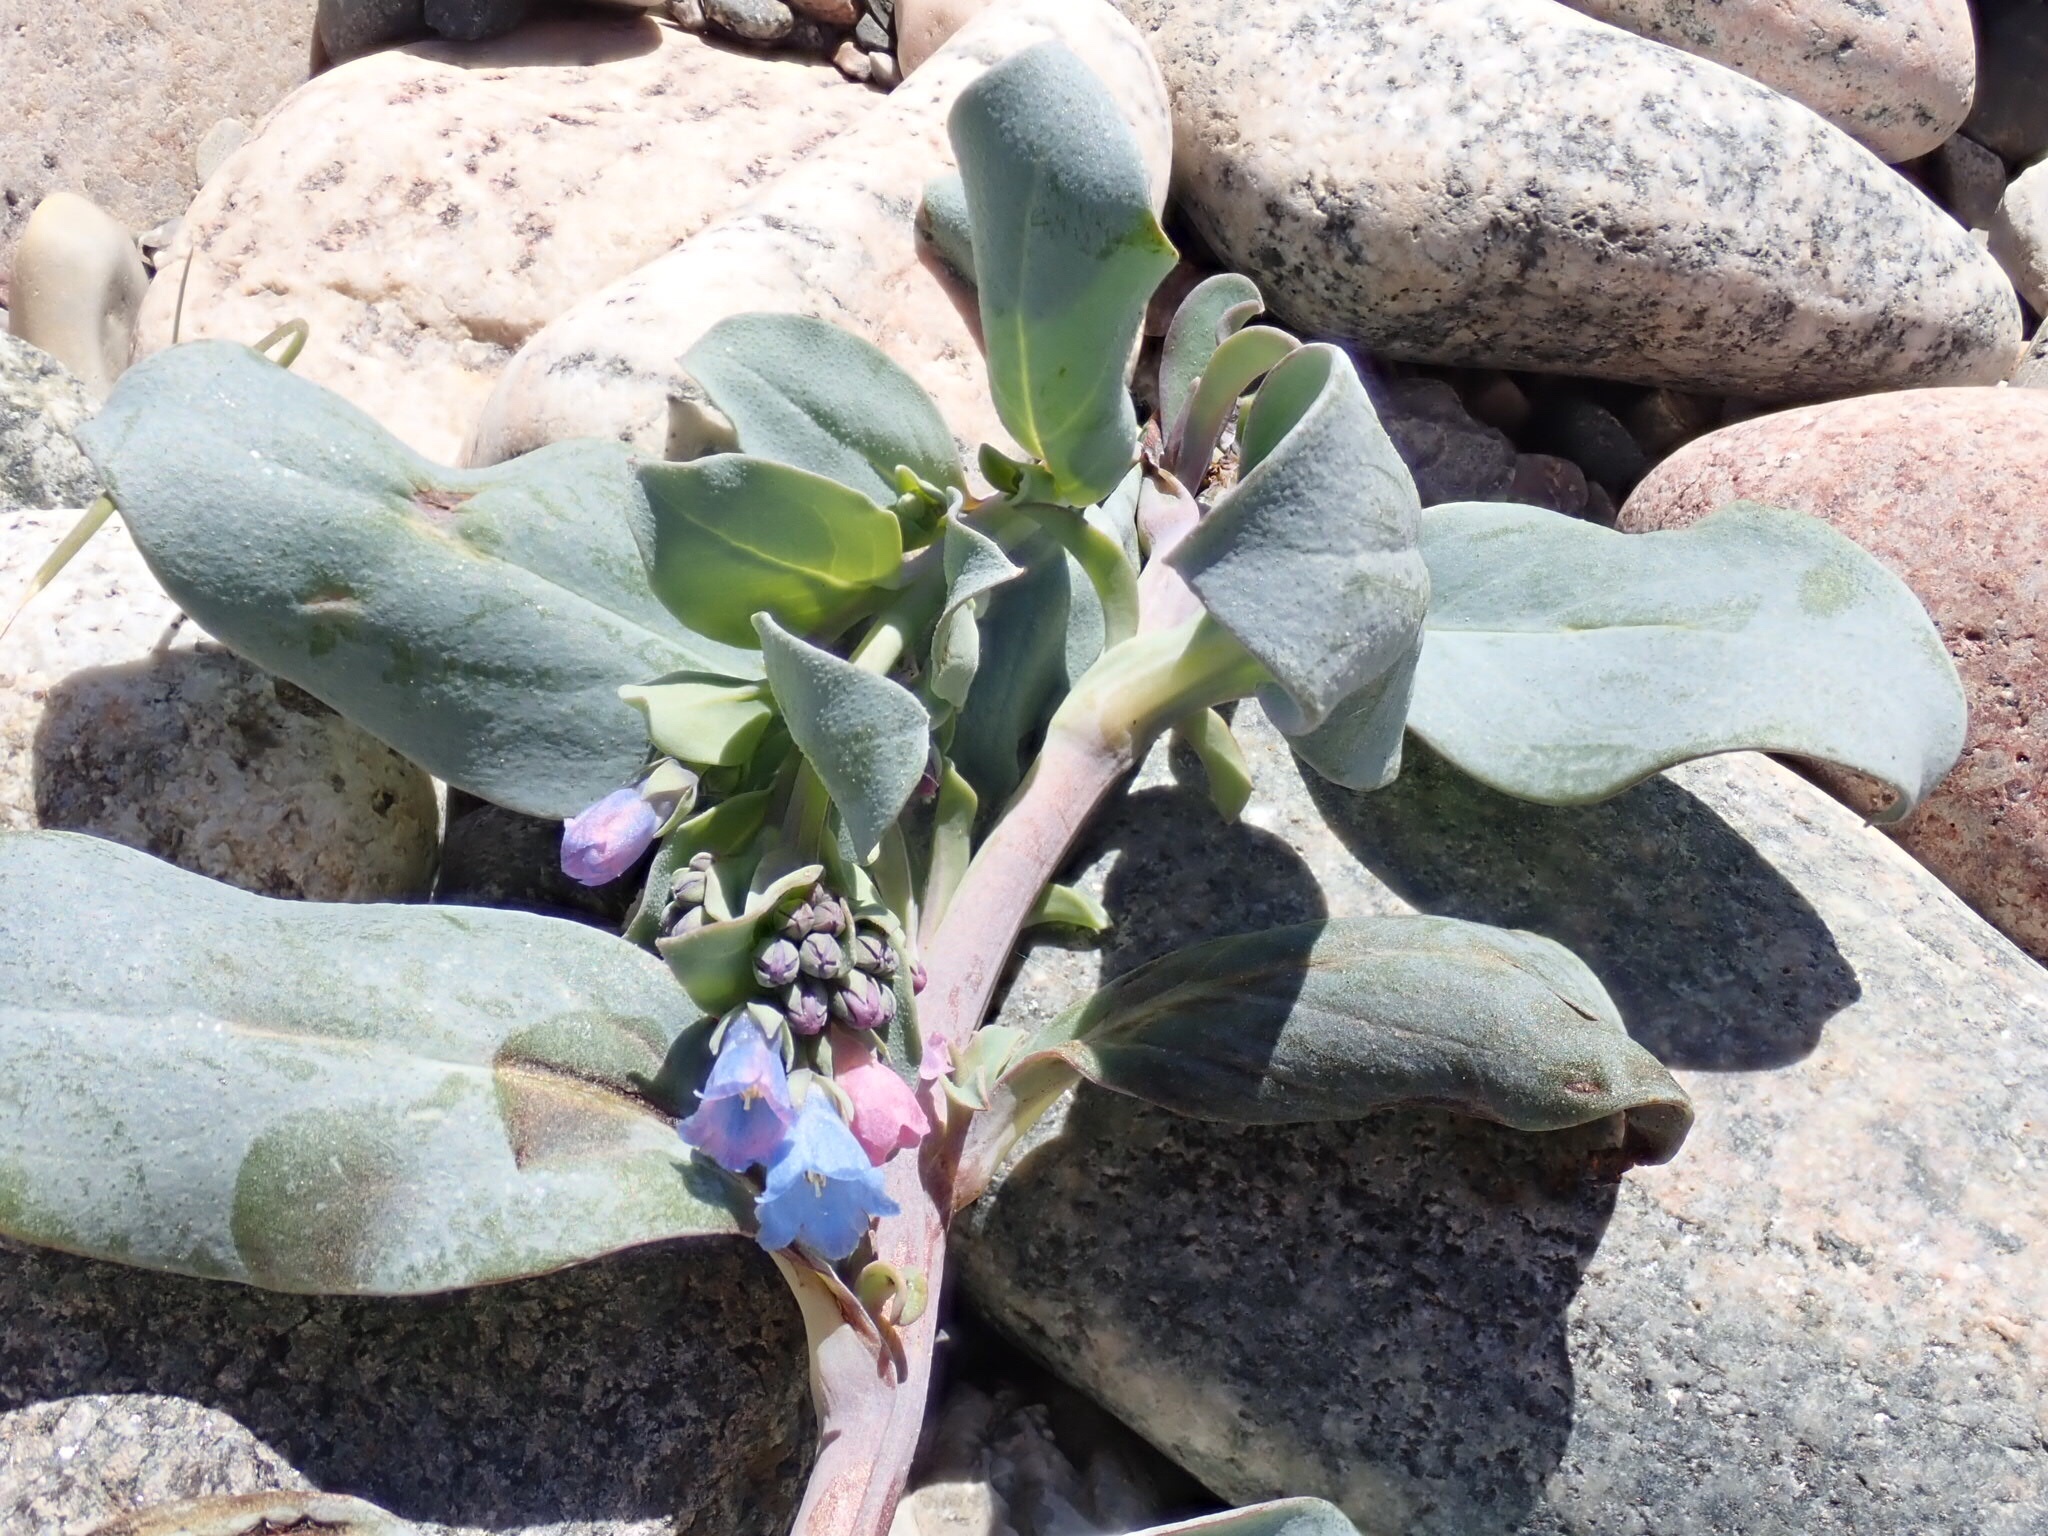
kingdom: Plantae
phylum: Tracheophyta
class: Magnoliopsida
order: Boraginales
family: Boraginaceae
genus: Mertensia
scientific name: Mertensia maritima
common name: Oysterplant
